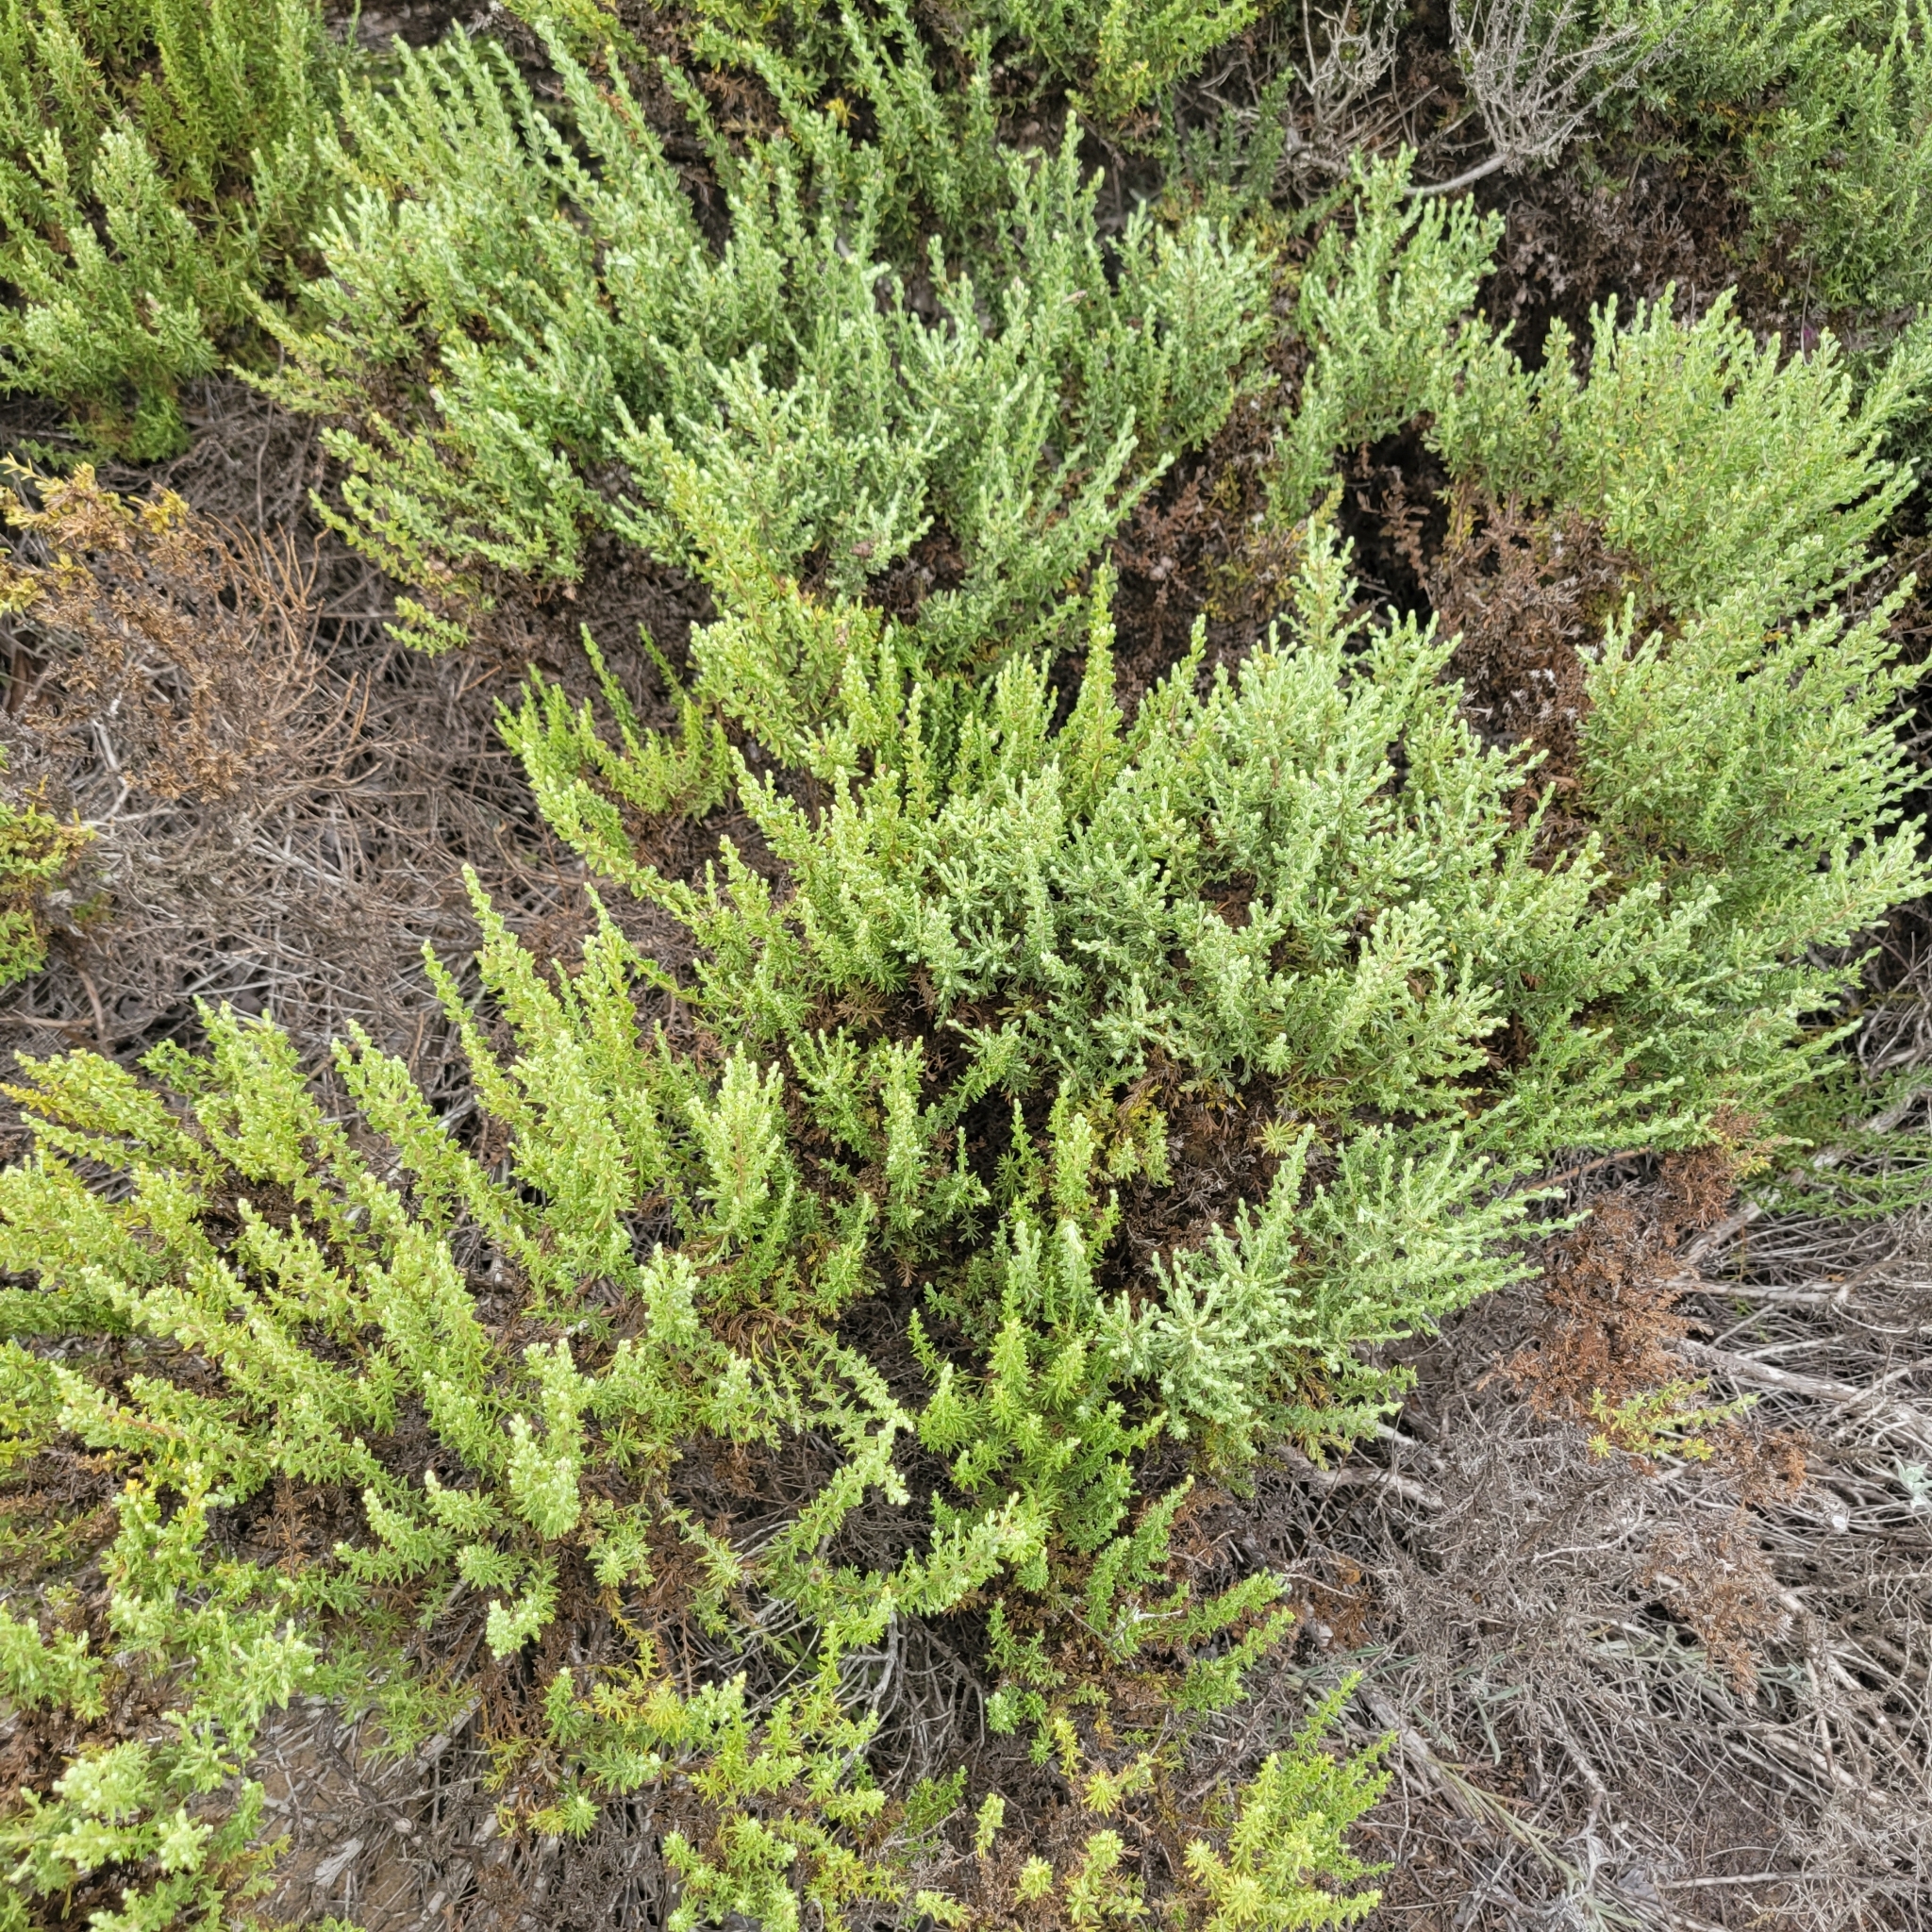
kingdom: Plantae
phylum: Tracheophyta
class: Magnoliopsida
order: Asterales
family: Asteraceae
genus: Ericameria
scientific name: Ericameria ericoides
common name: California goldenbush
